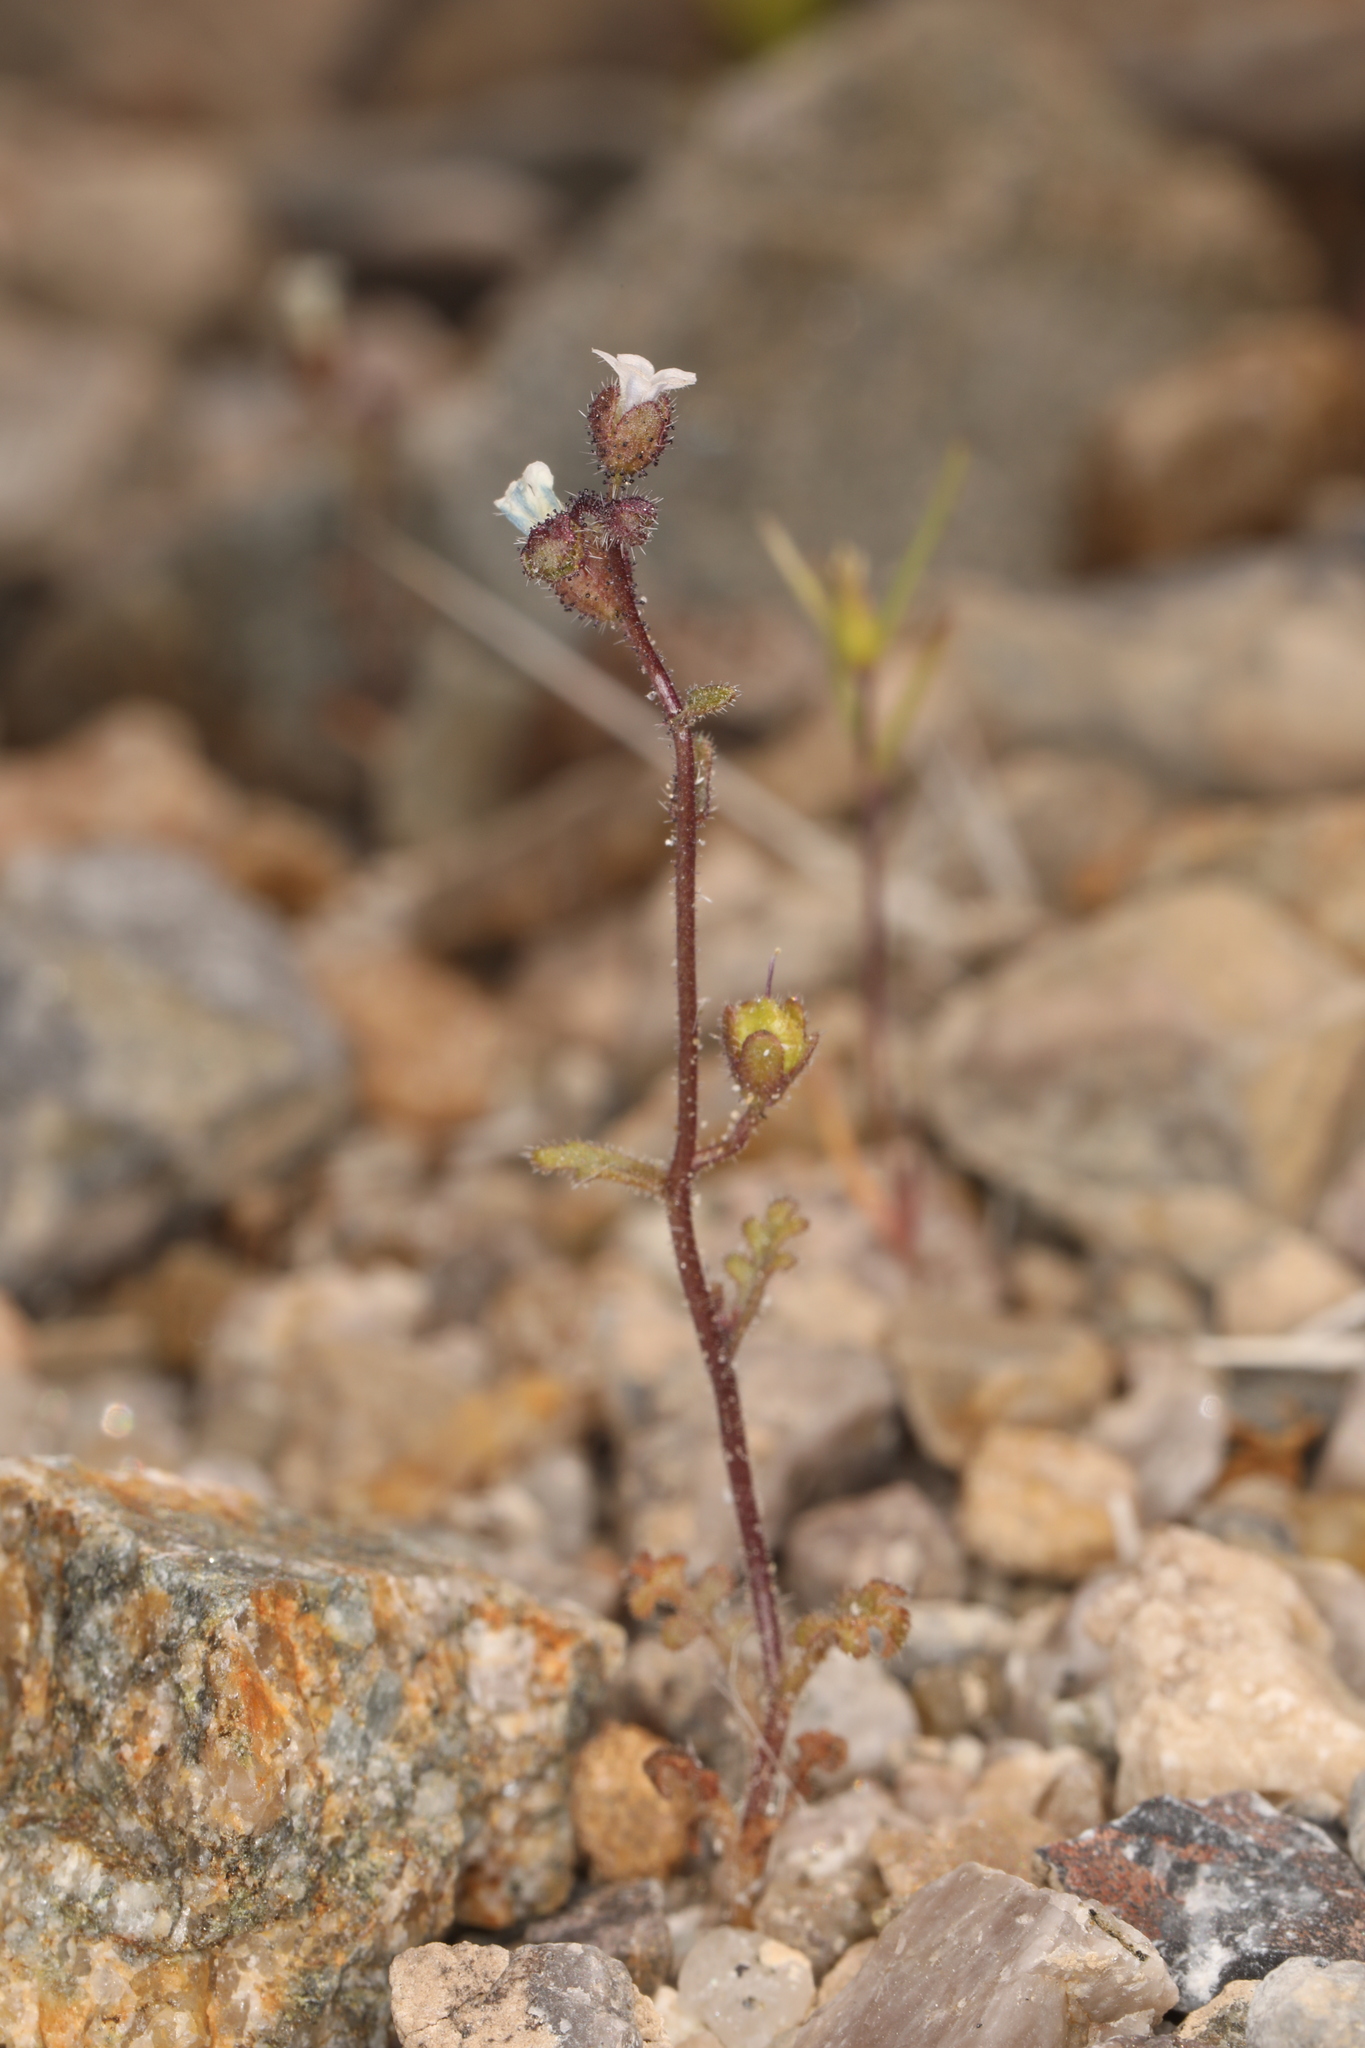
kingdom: Plantae
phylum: Tracheophyta
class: Magnoliopsida
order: Boraginales
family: Hydrophyllaceae
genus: Eucrypta
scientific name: Eucrypta micrantha
